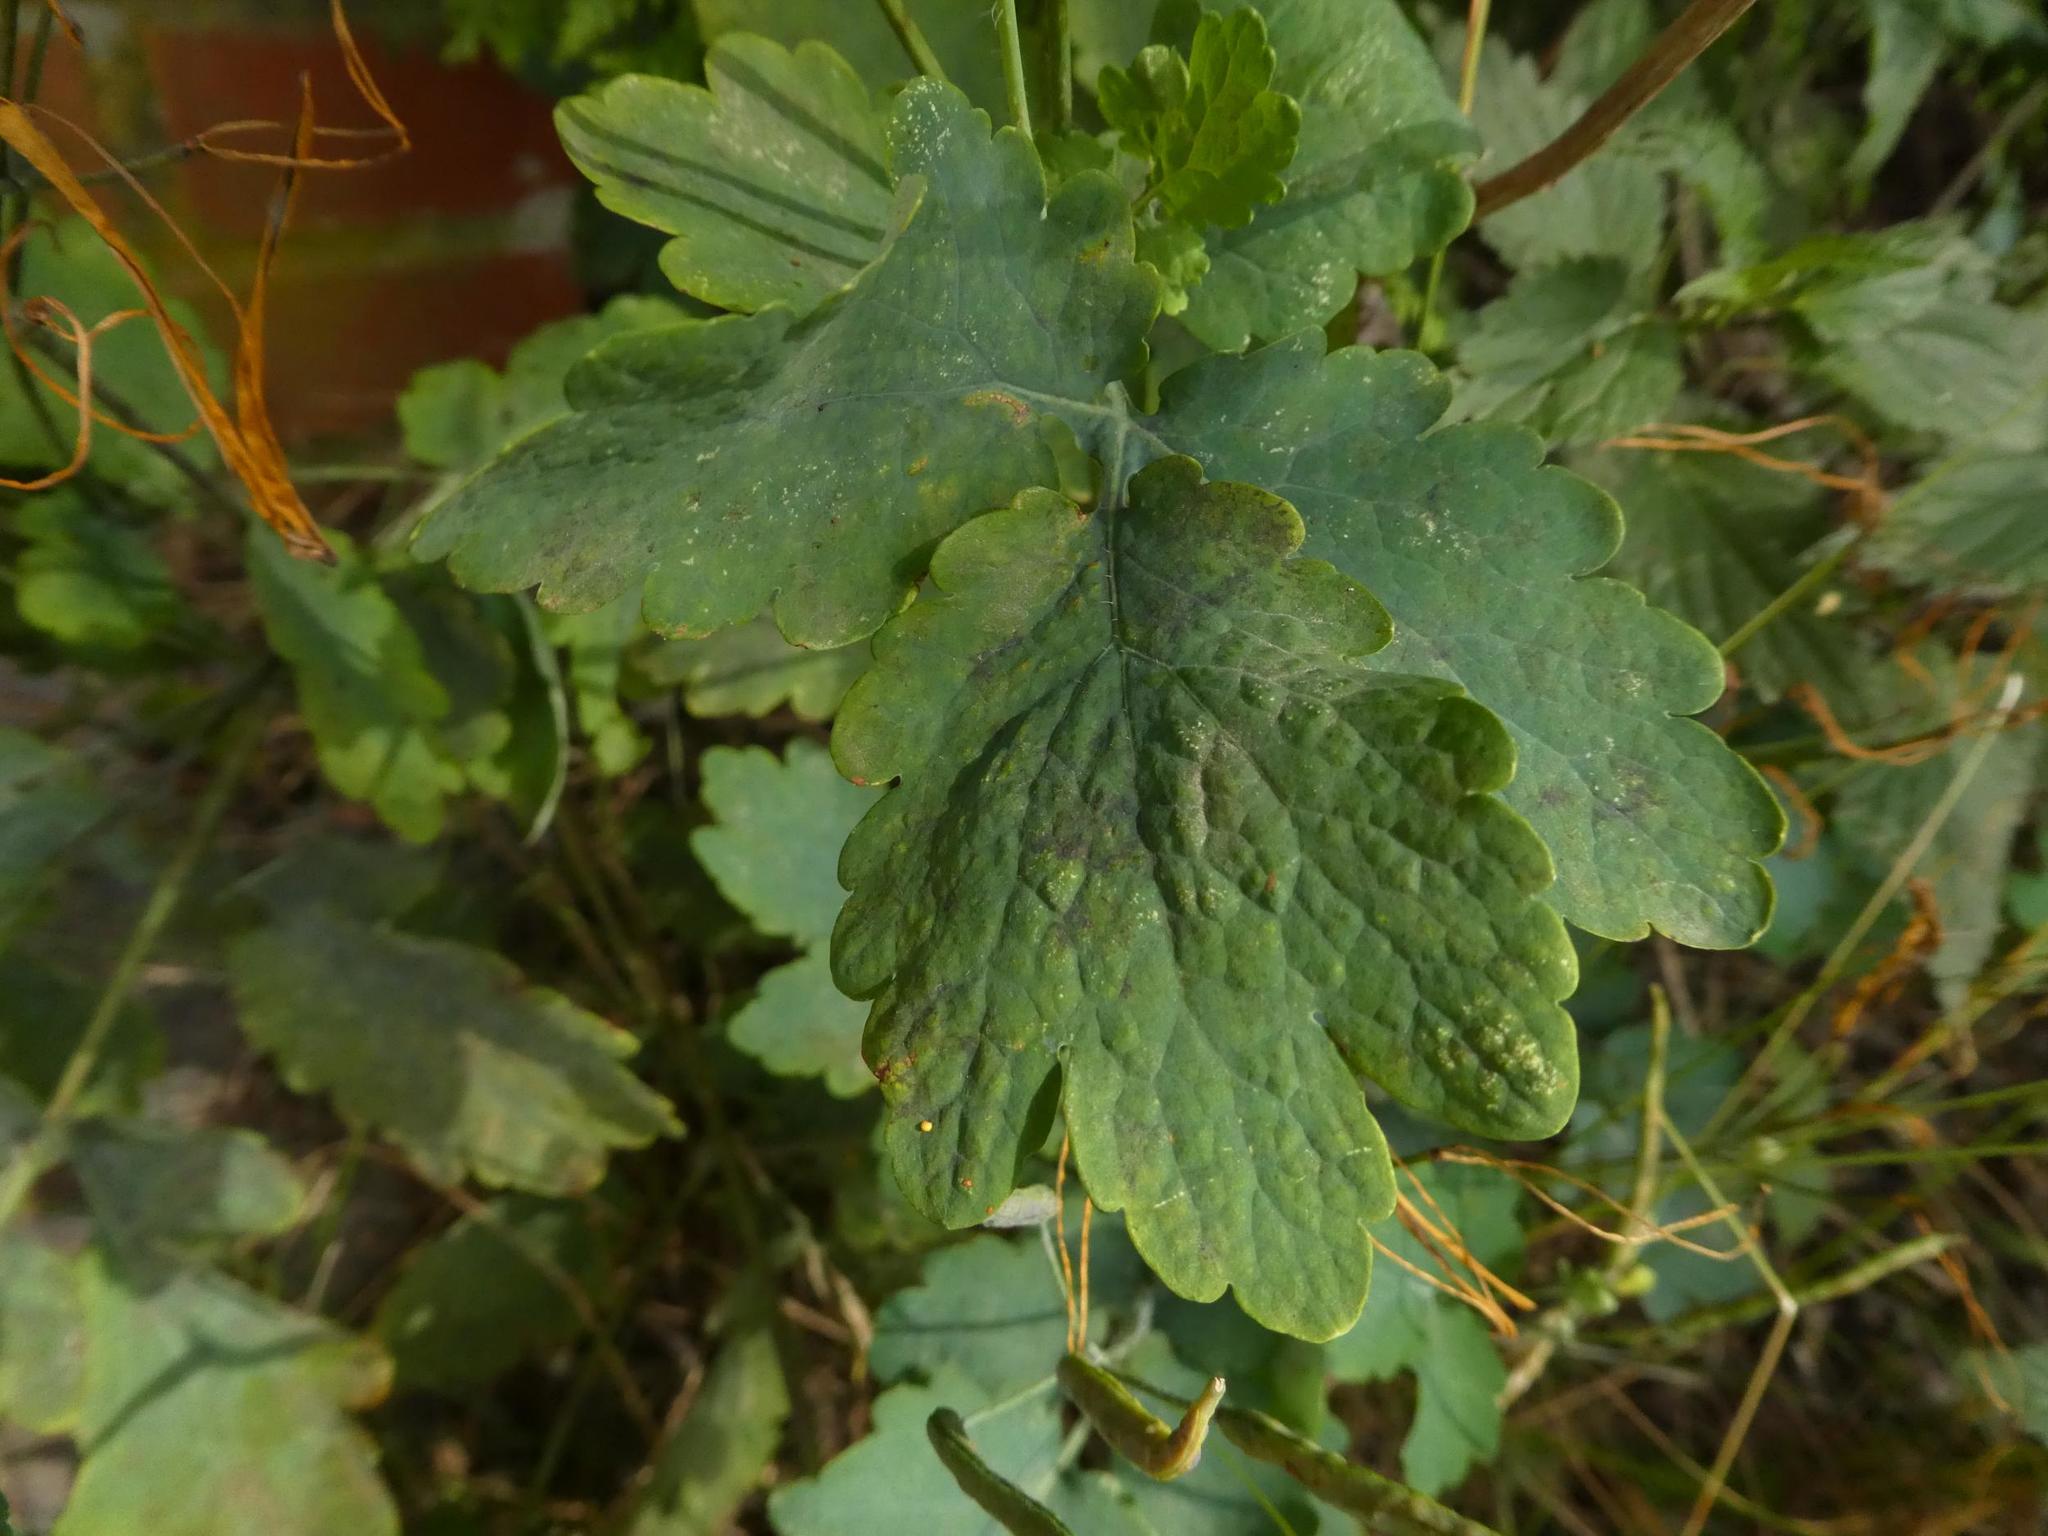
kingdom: Plantae
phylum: Tracheophyta
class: Magnoliopsida
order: Ranunculales
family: Papaveraceae
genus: Chelidonium
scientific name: Chelidonium majus
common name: Greater celandine
